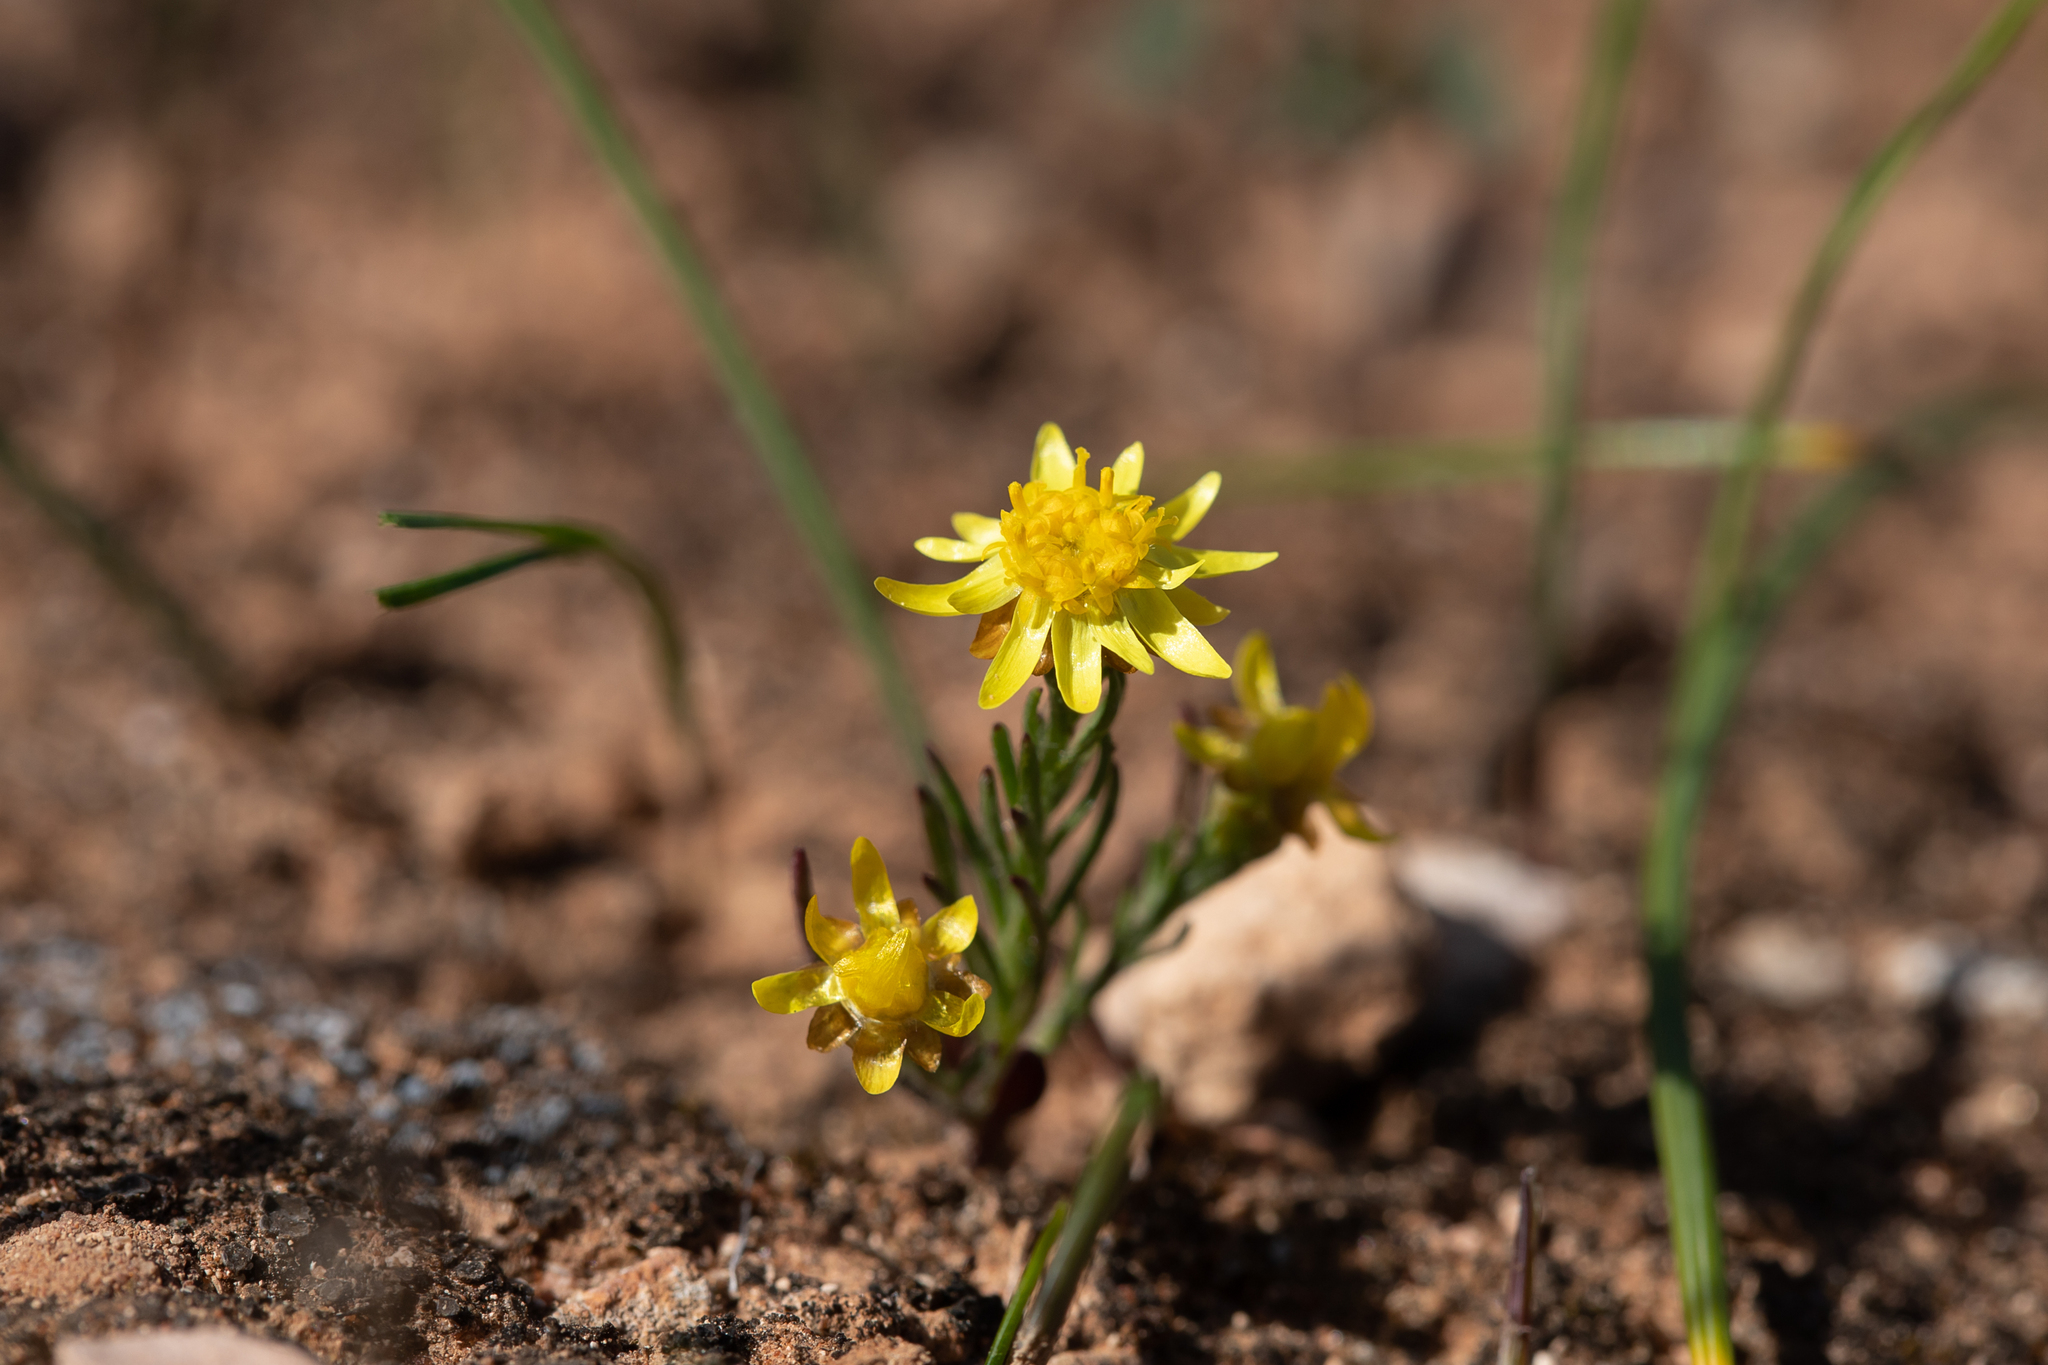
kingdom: Plantae
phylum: Tracheophyta
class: Magnoliopsida
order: Asterales
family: Asteraceae
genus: Hyalosperma
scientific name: Hyalosperma semisterile
